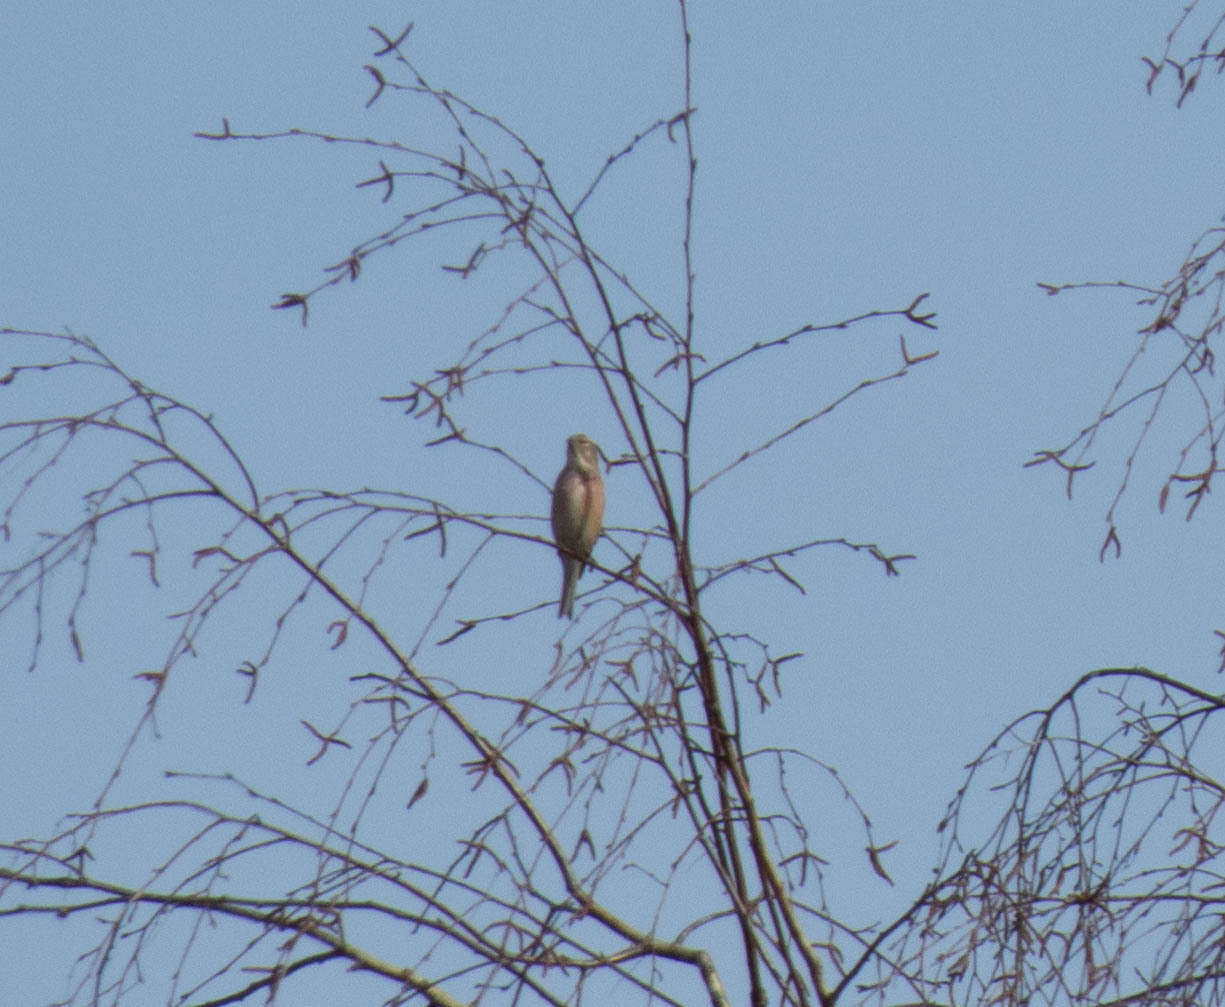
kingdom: Animalia
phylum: Chordata
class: Aves
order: Passeriformes
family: Fringillidae
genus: Linaria
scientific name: Linaria cannabina
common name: Common linnet
